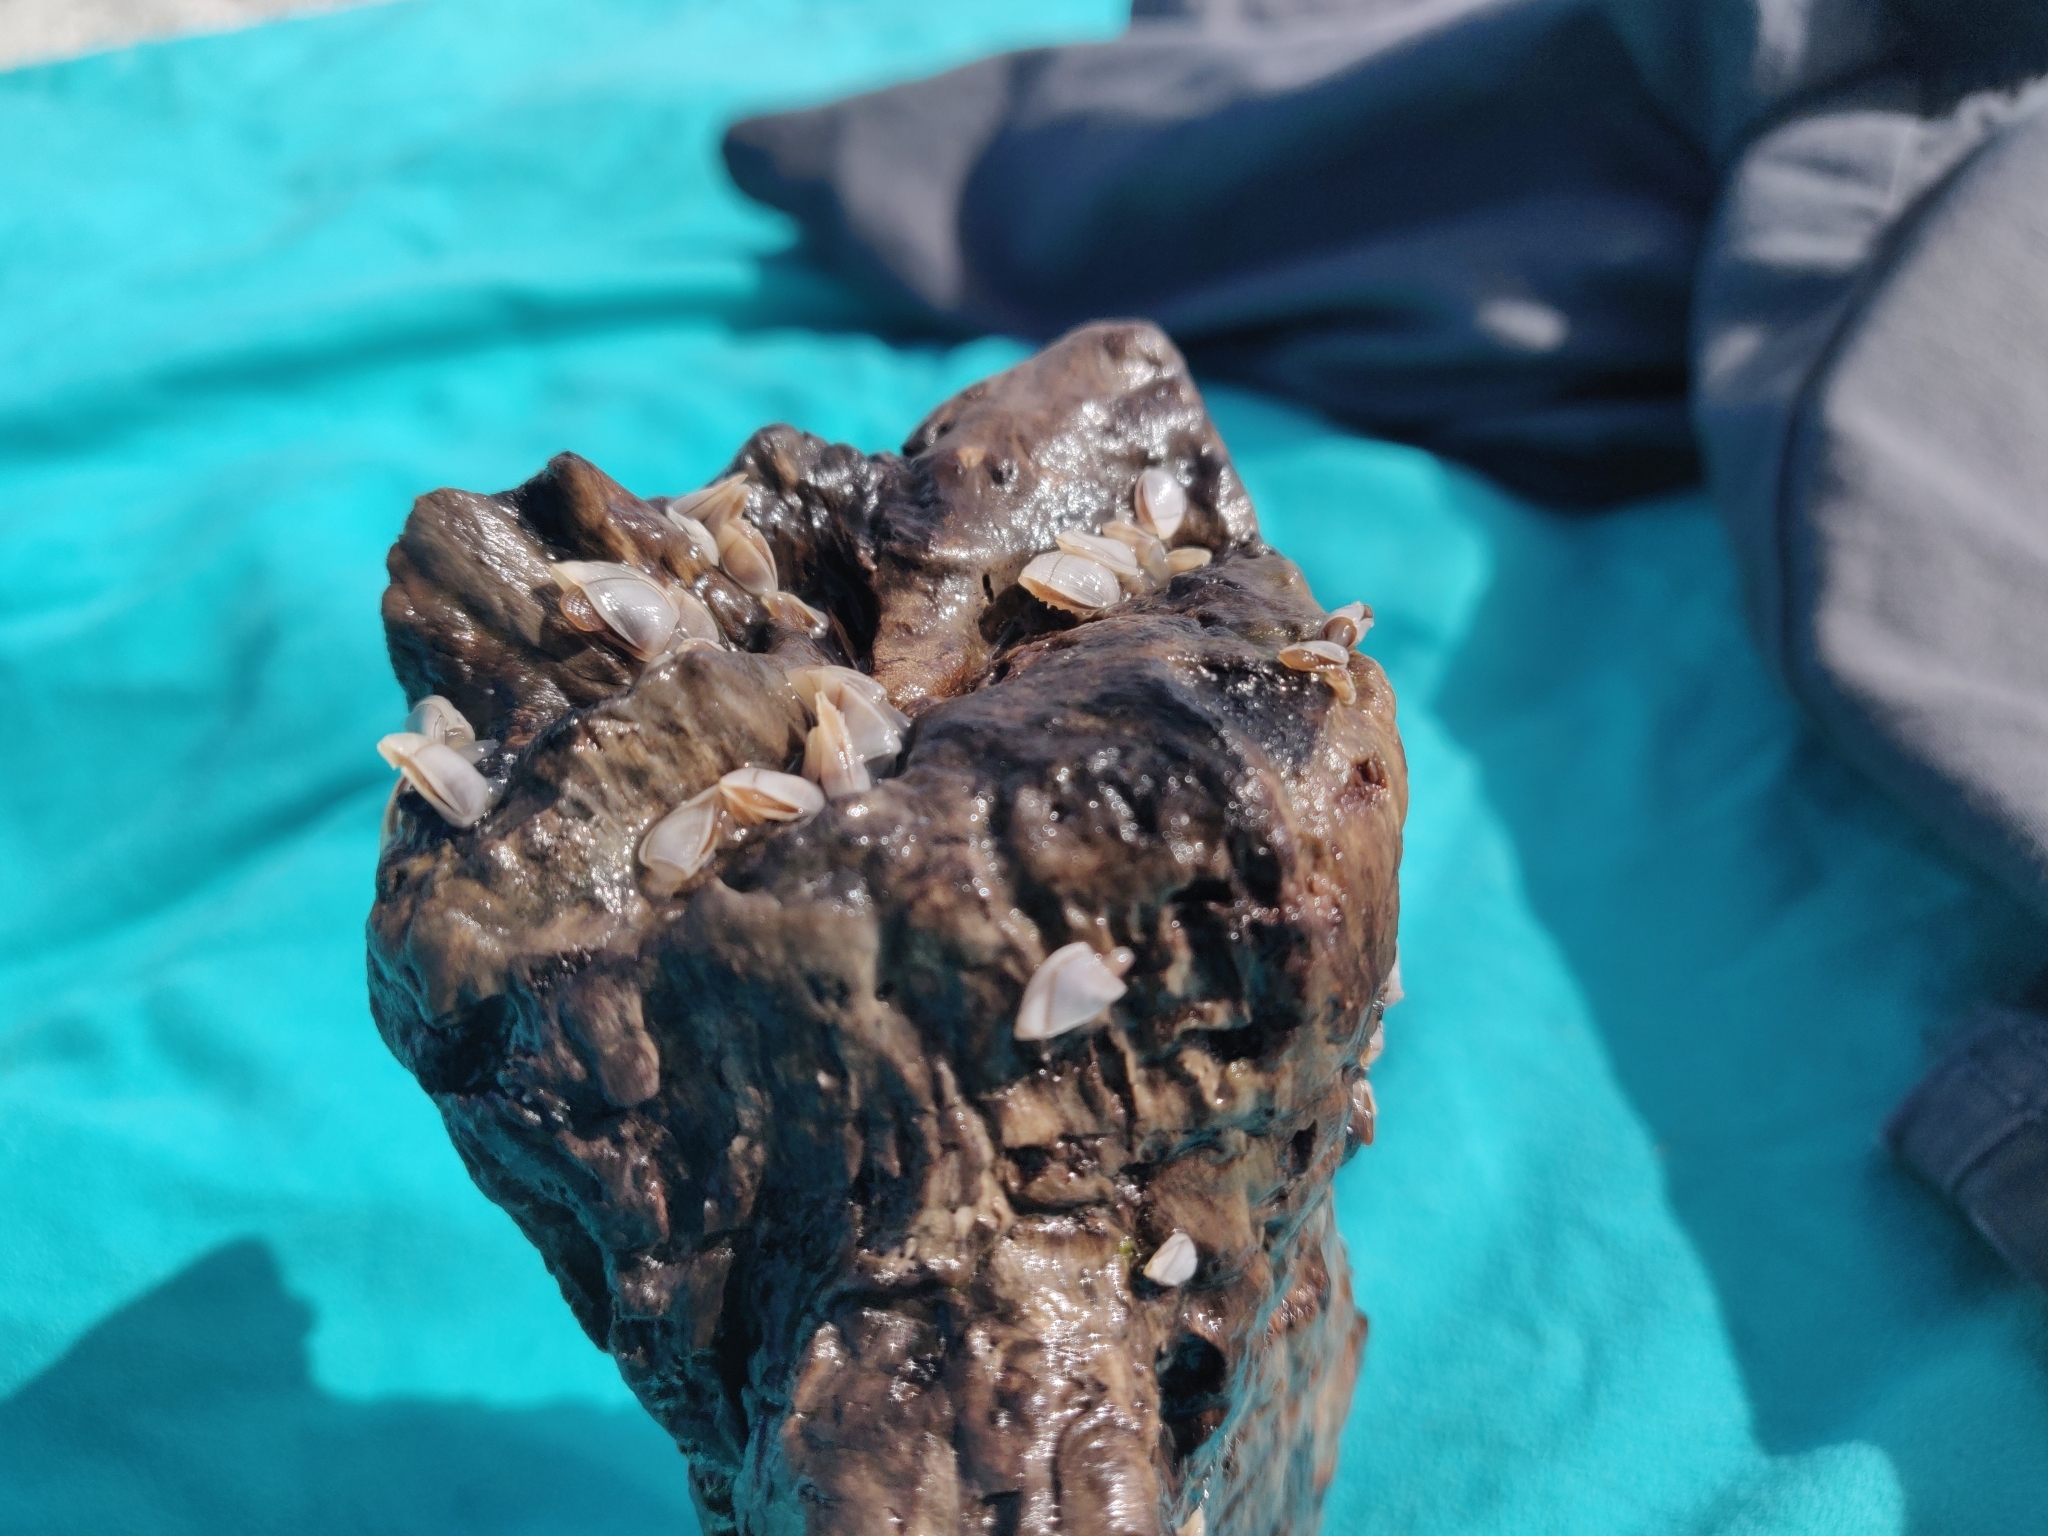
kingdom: Animalia
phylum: Arthropoda
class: Maxillopoda
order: Pedunculata
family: Lepadidae
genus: Lepas
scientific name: Lepas pectinata
